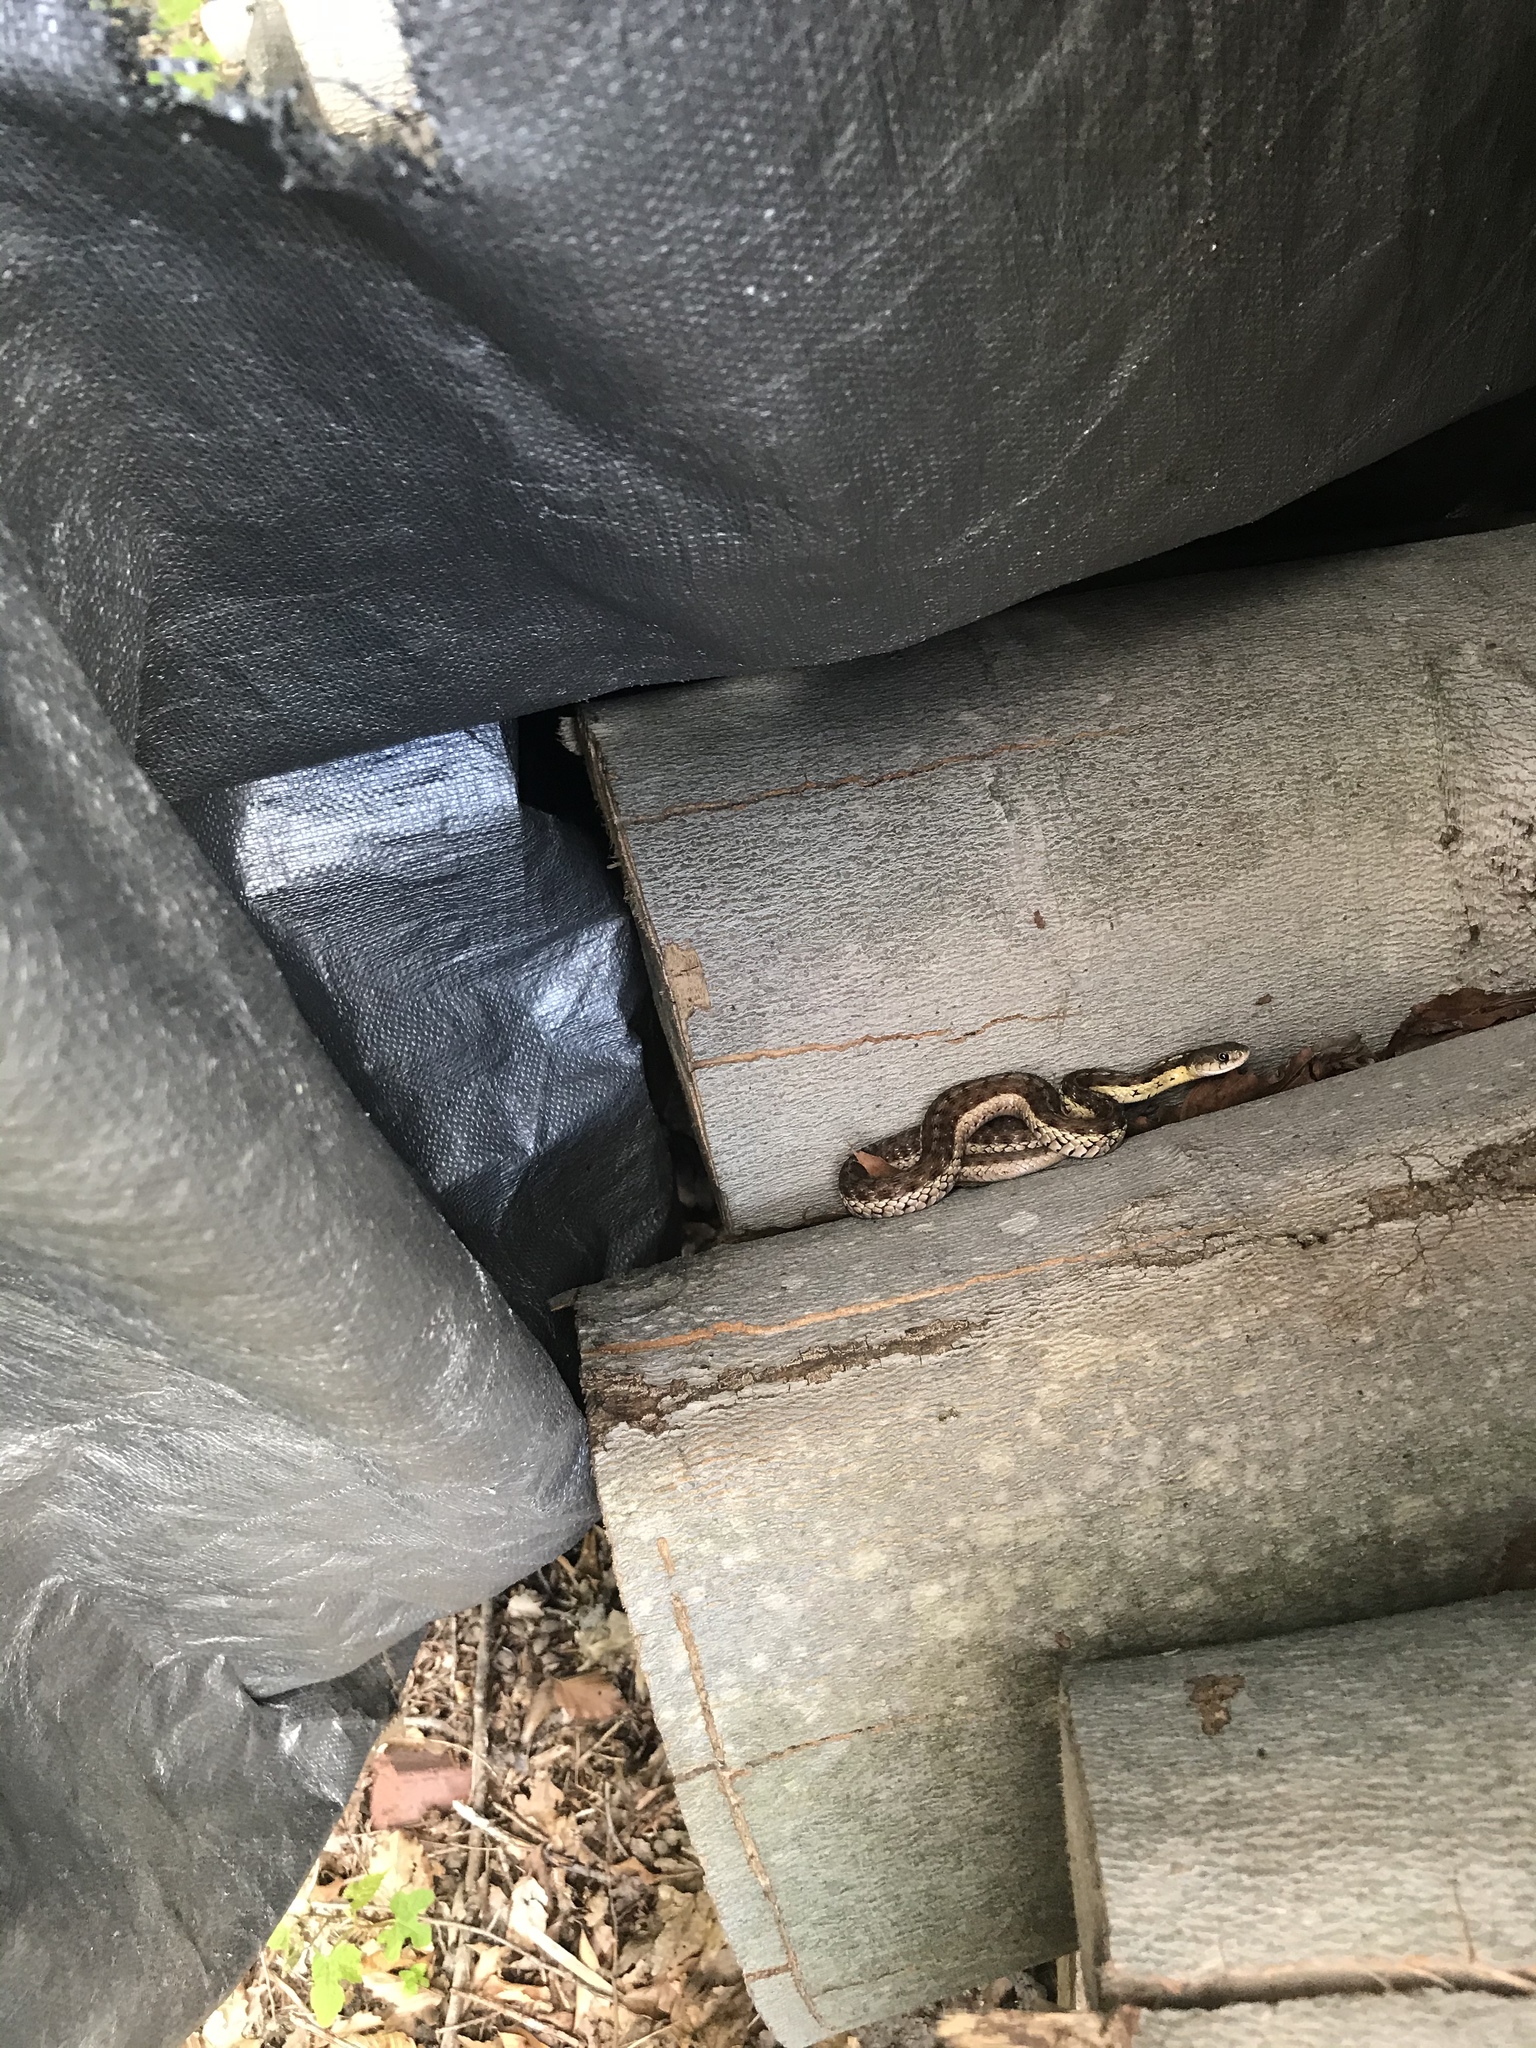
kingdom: Animalia
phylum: Chordata
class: Squamata
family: Colubridae
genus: Thamnophis
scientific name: Thamnophis sirtalis
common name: Common garter snake
